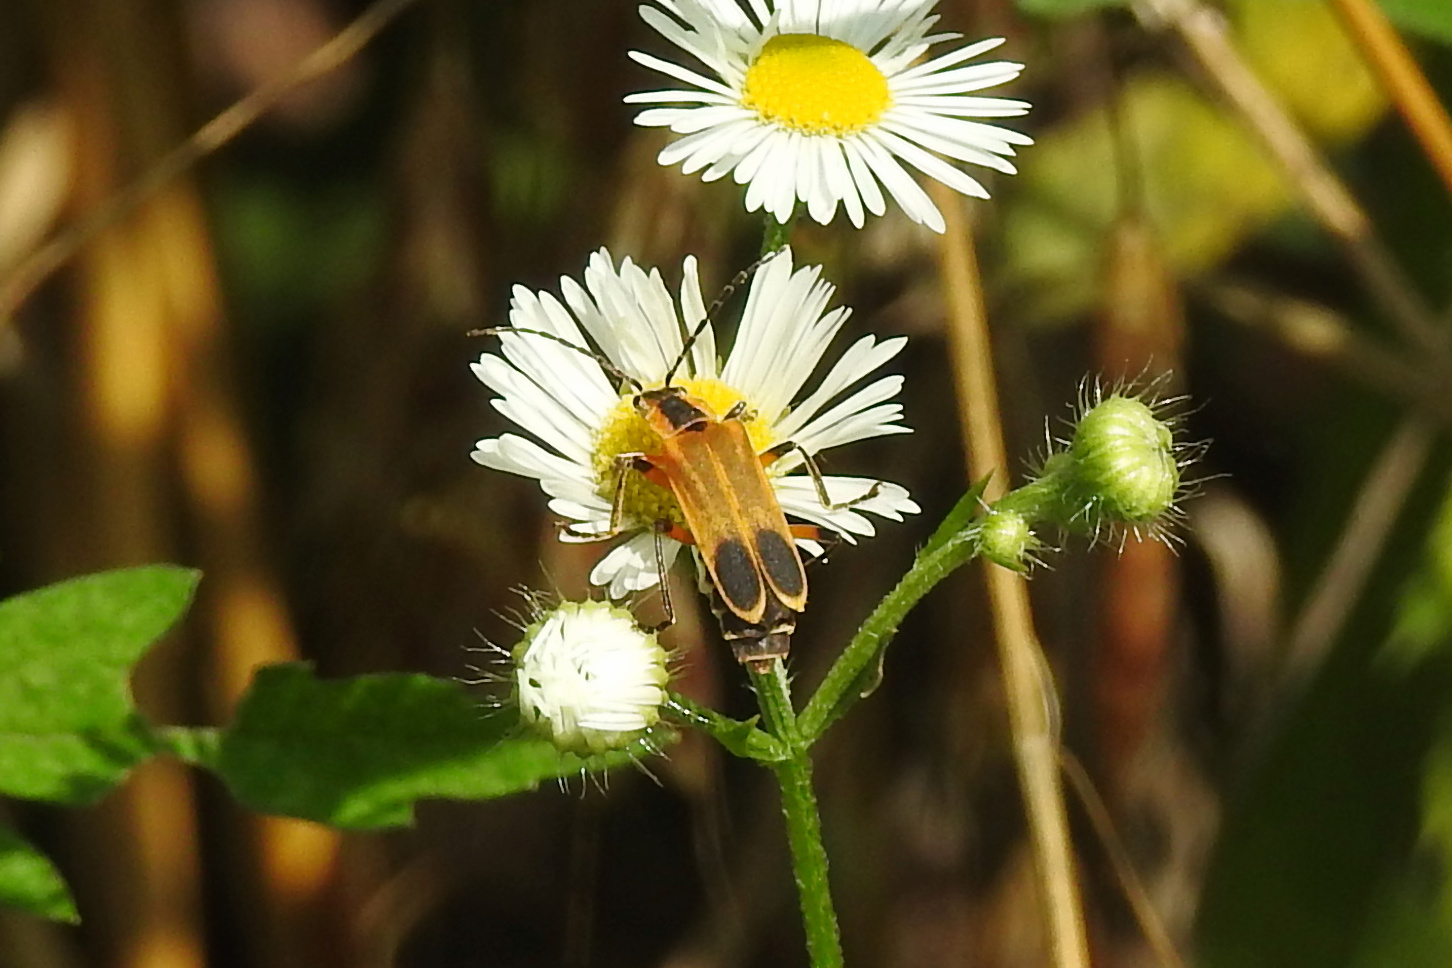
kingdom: Animalia
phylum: Arthropoda
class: Insecta
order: Coleoptera
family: Cantharidae
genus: Chauliognathus
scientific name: Chauliognathus marginatus
